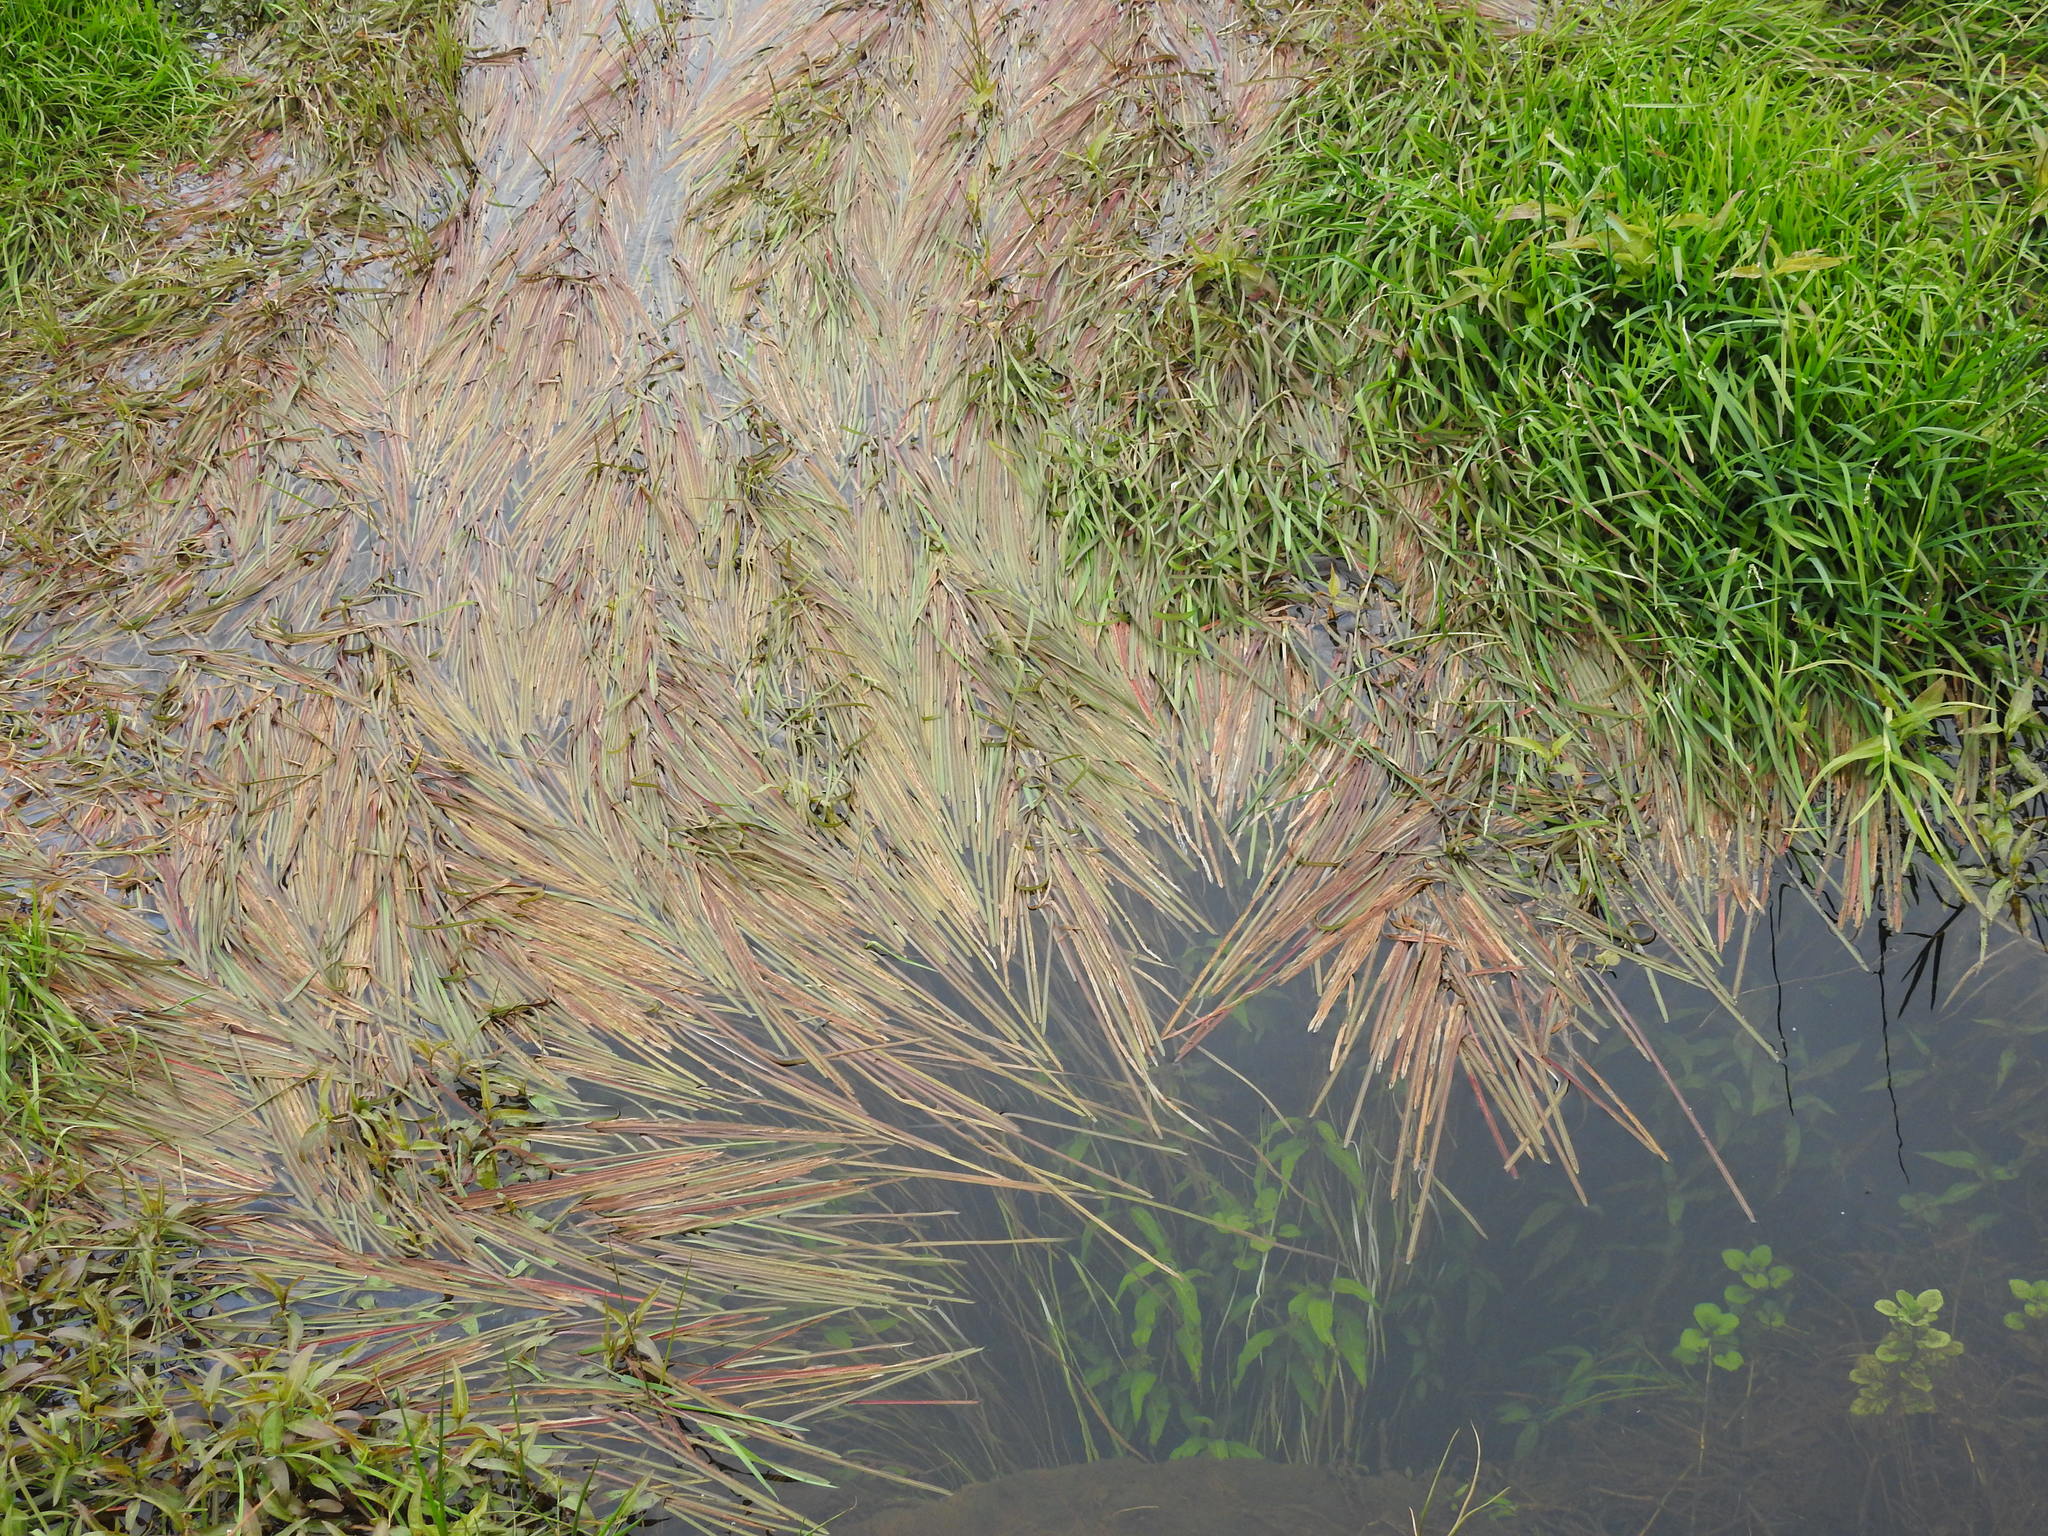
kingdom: Plantae
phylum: Tracheophyta
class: Liliopsida
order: Poales
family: Poaceae
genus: Glyceria
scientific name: Glyceria fluitans
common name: Floating sweet-grass
